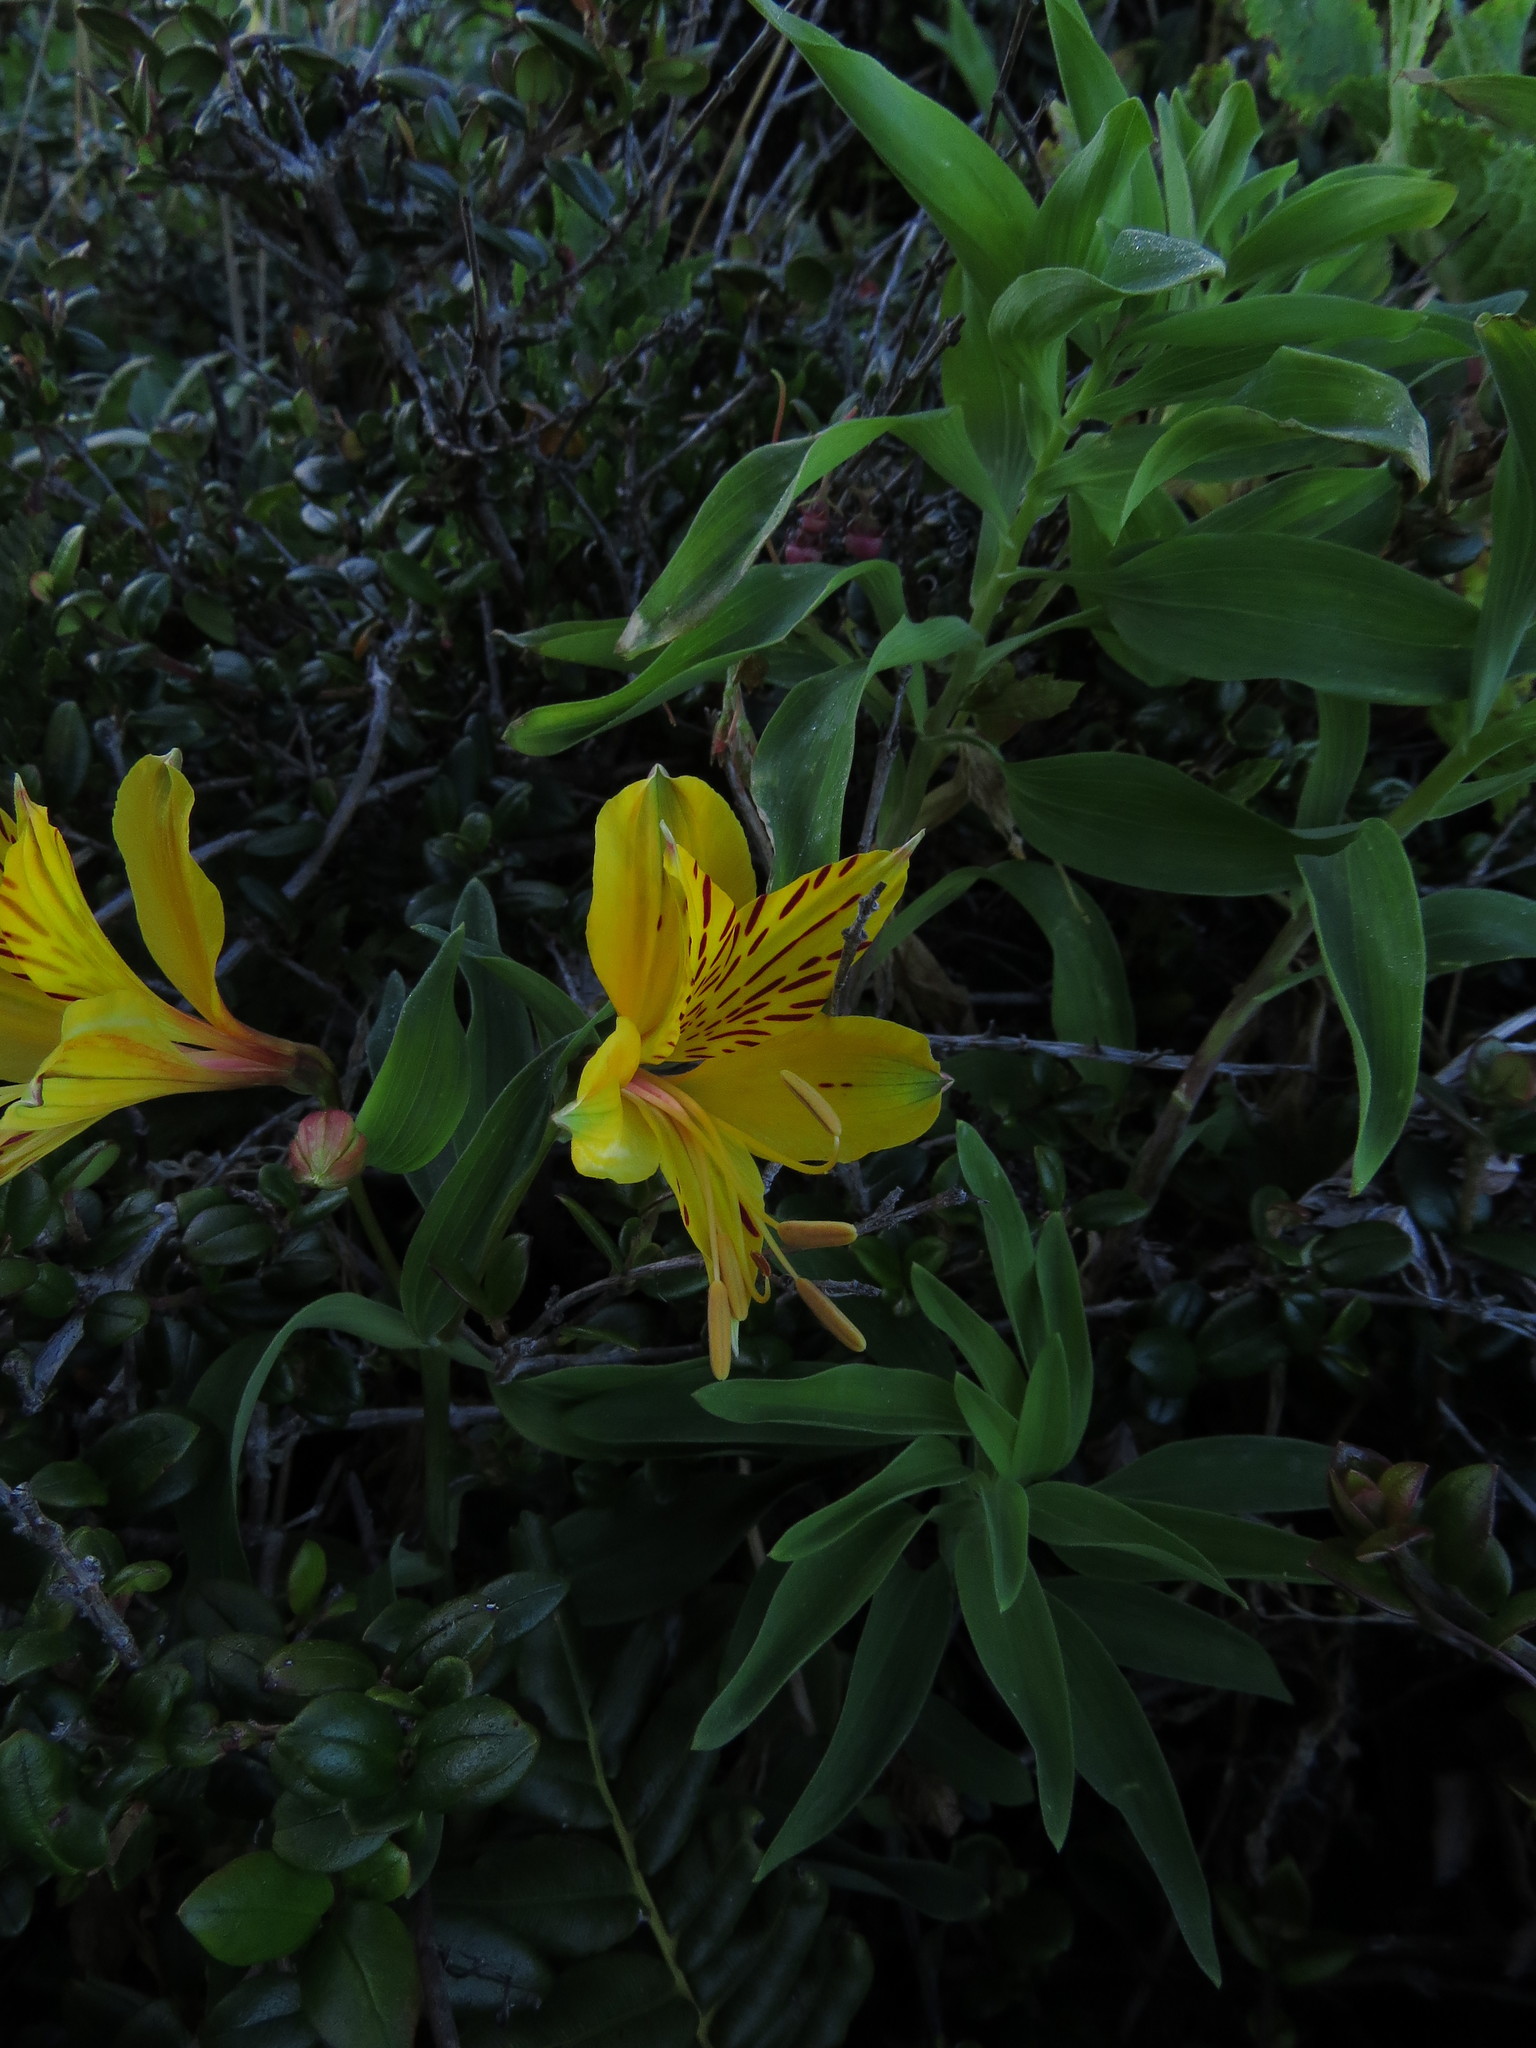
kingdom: Plantae
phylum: Tracheophyta
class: Liliopsida
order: Liliales
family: Alstroemeriaceae
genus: Alstroemeria
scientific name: Alstroemeria aurea
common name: Peruvian lily
